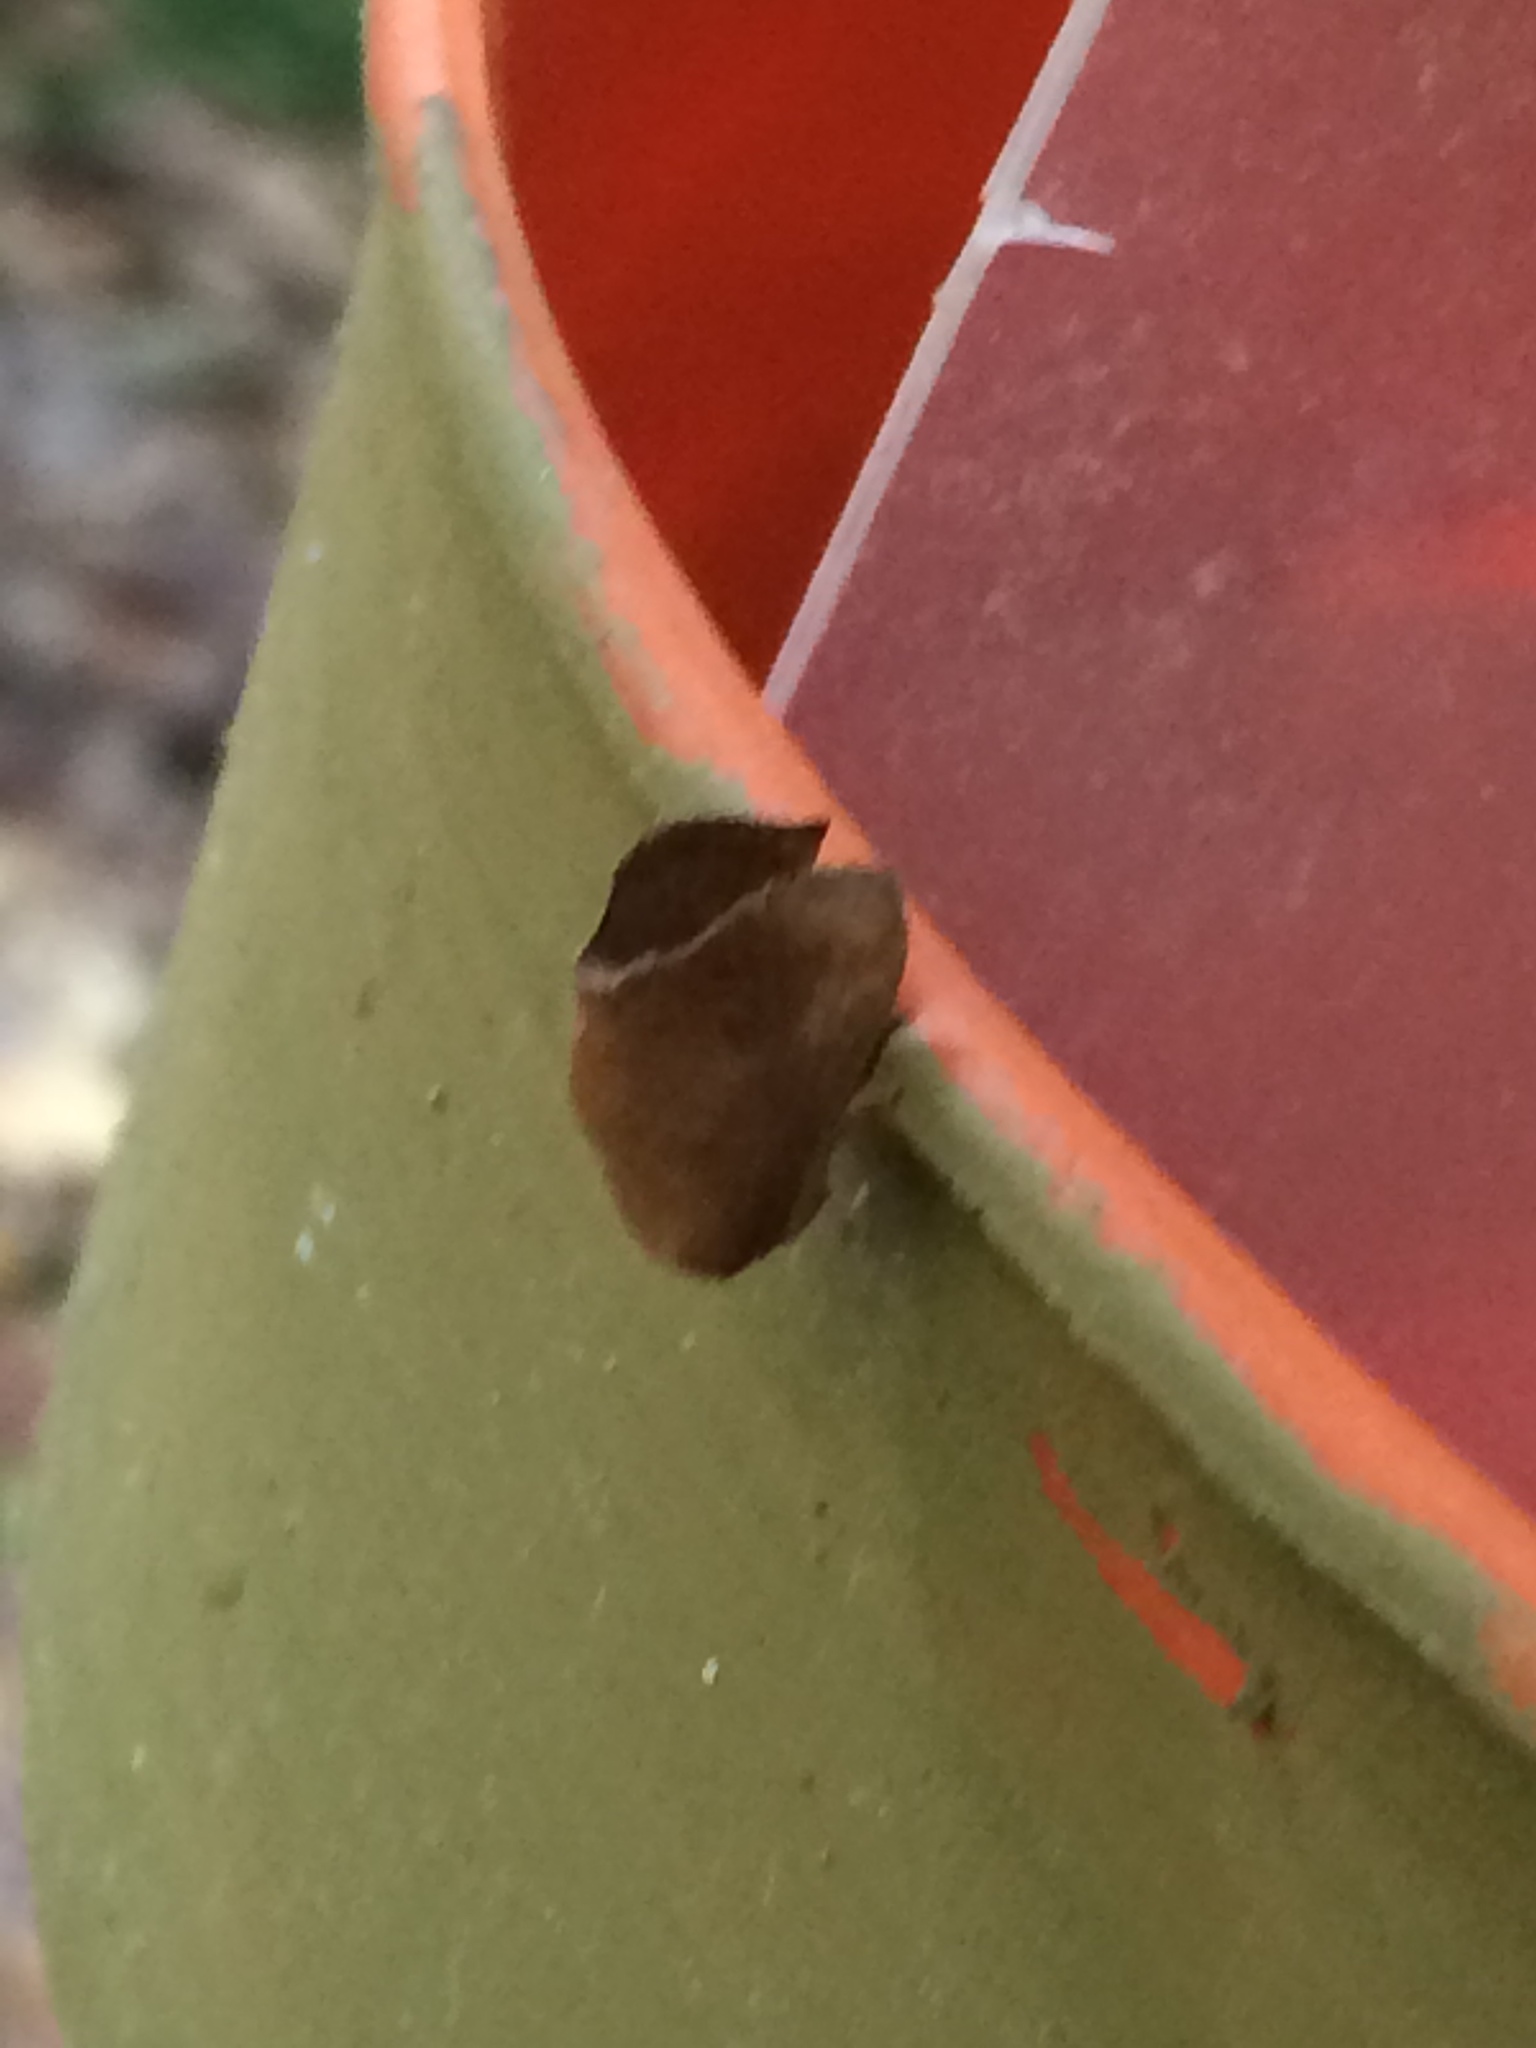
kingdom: Animalia
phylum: Arthropoda
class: Insecta
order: Lepidoptera
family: Limacodidae
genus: Isa
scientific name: Isa textula
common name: Crowned slug moth
